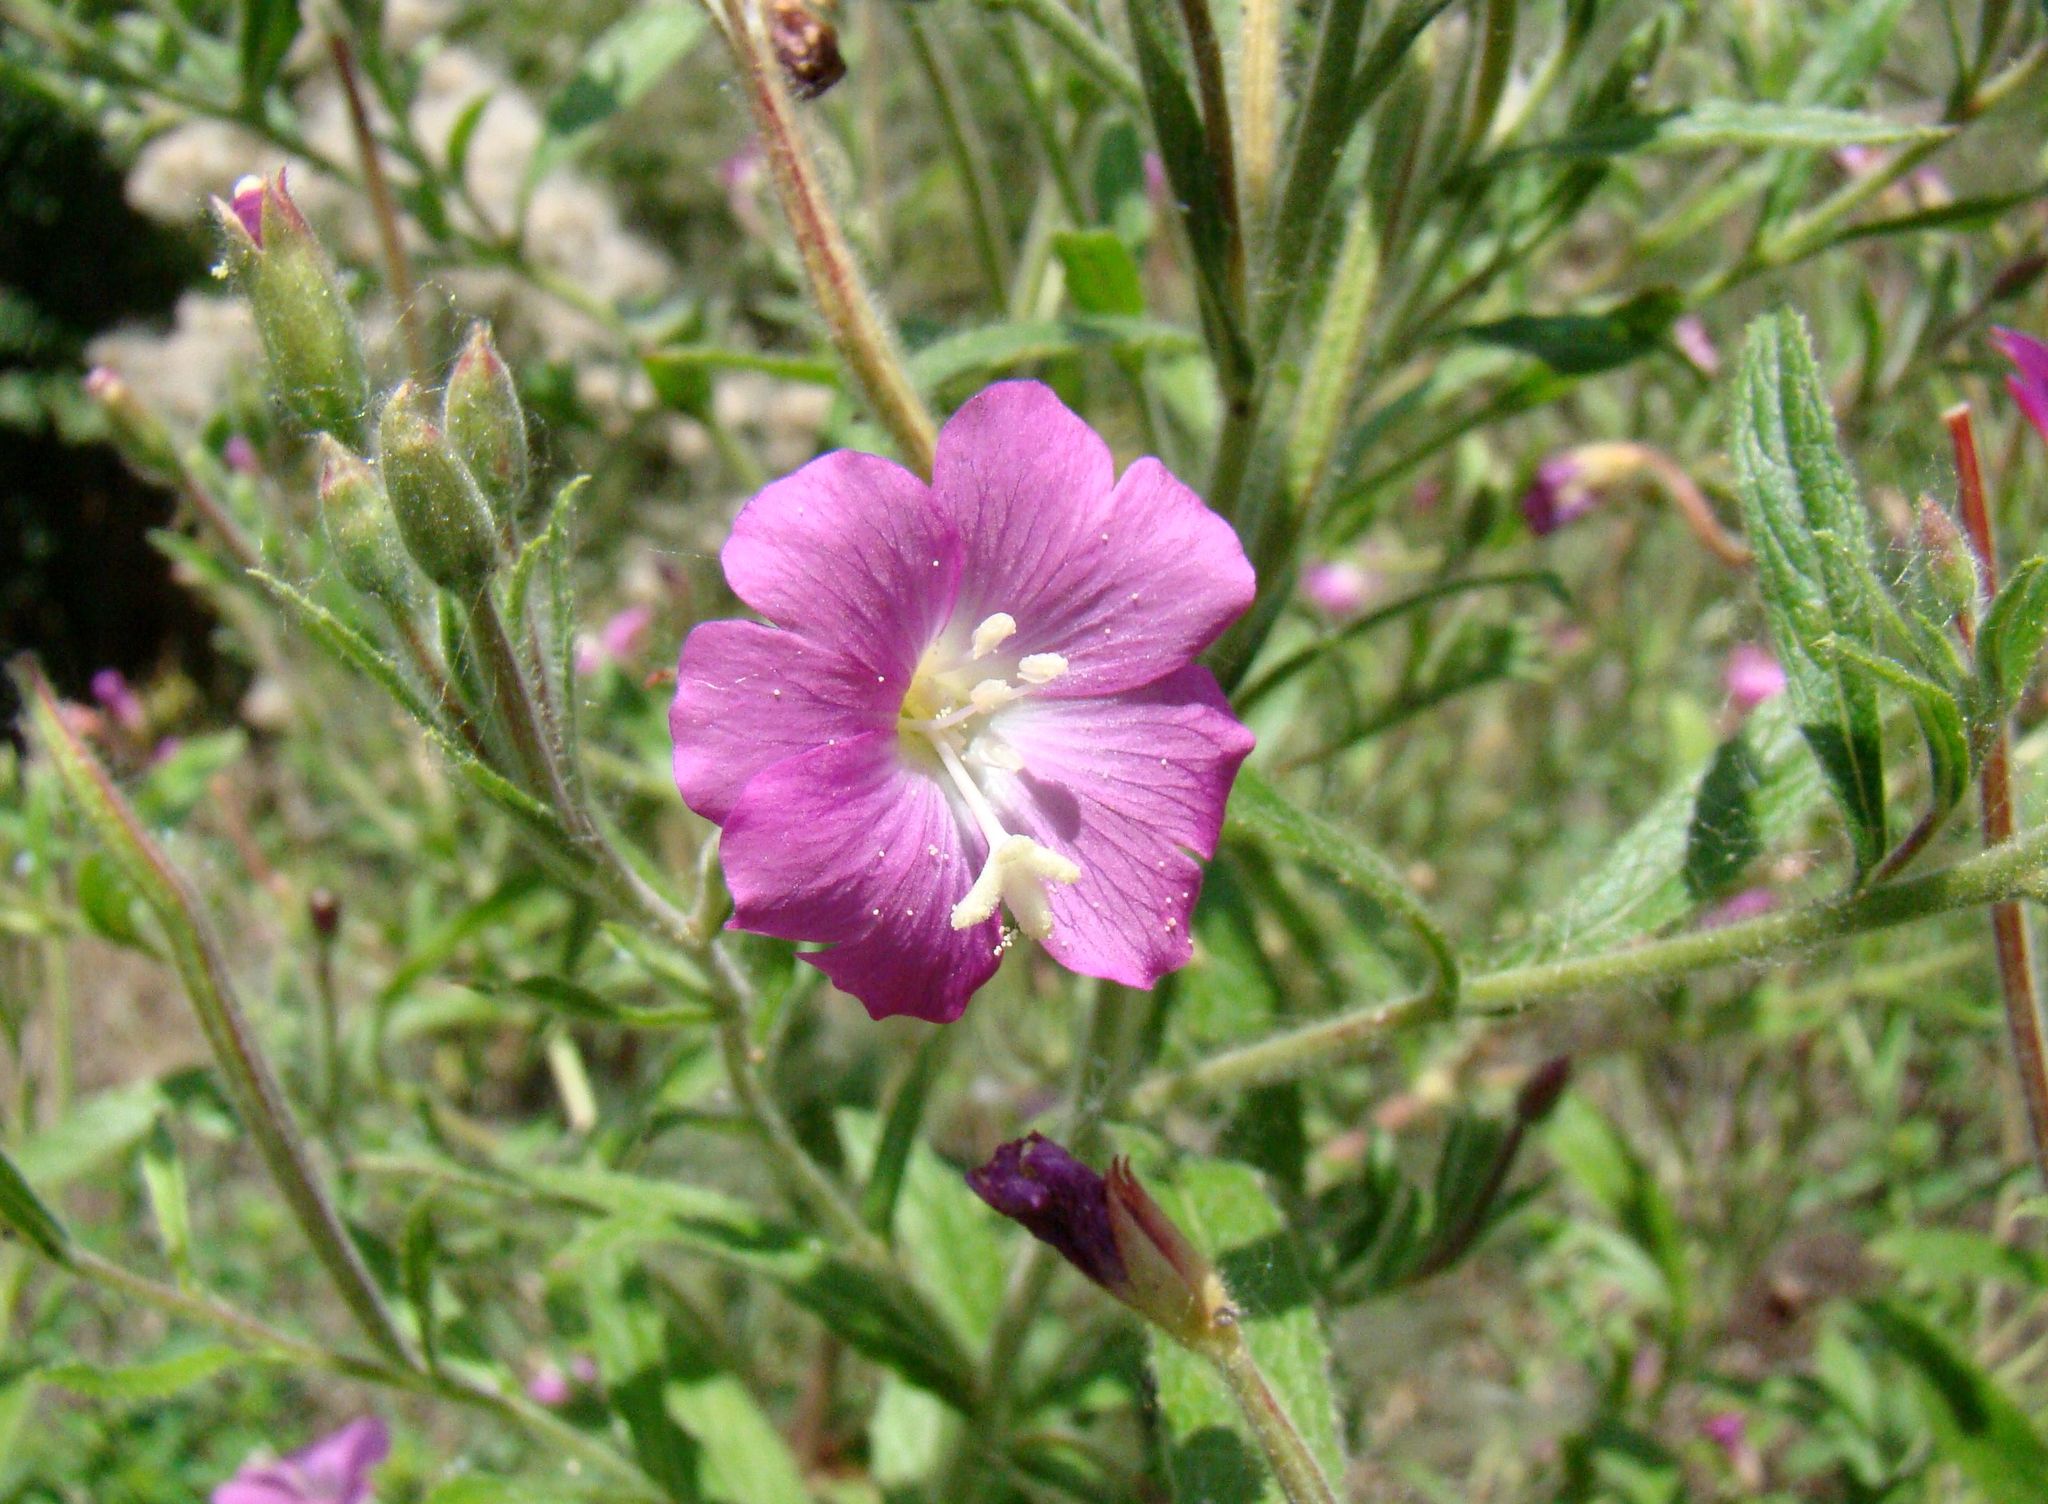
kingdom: Plantae
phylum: Tracheophyta
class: Magnoliopsida
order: Myrtales
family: Onagraceae
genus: Epilobium
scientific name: Epilobium hirsutum
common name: Great willowherb
